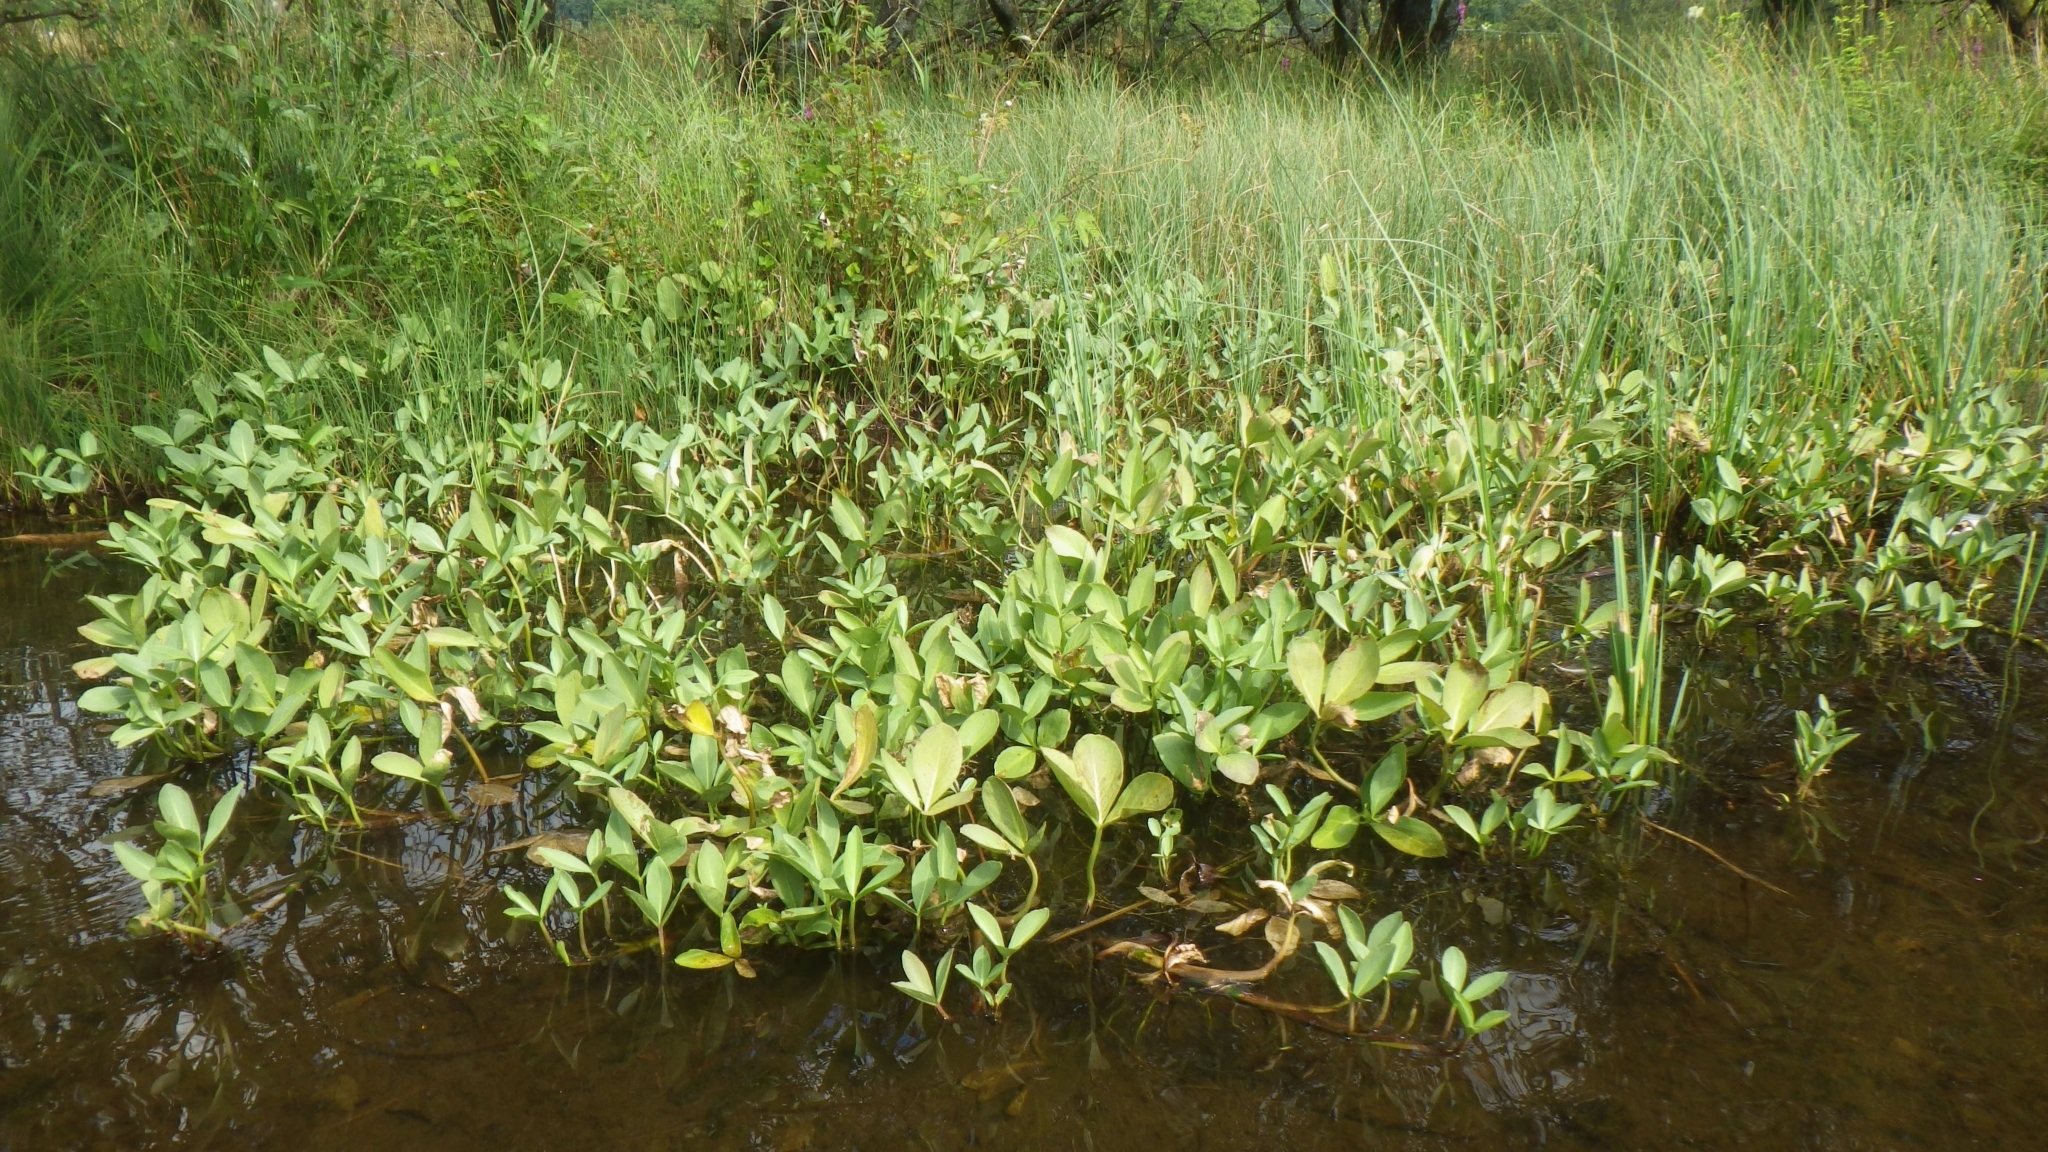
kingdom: Plantae
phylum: Tracheophyta
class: Magnoliopsida
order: Asterales
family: Menyanthaceae
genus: Menyanthes
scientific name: Menyanthes trifoliata
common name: Bogbean
